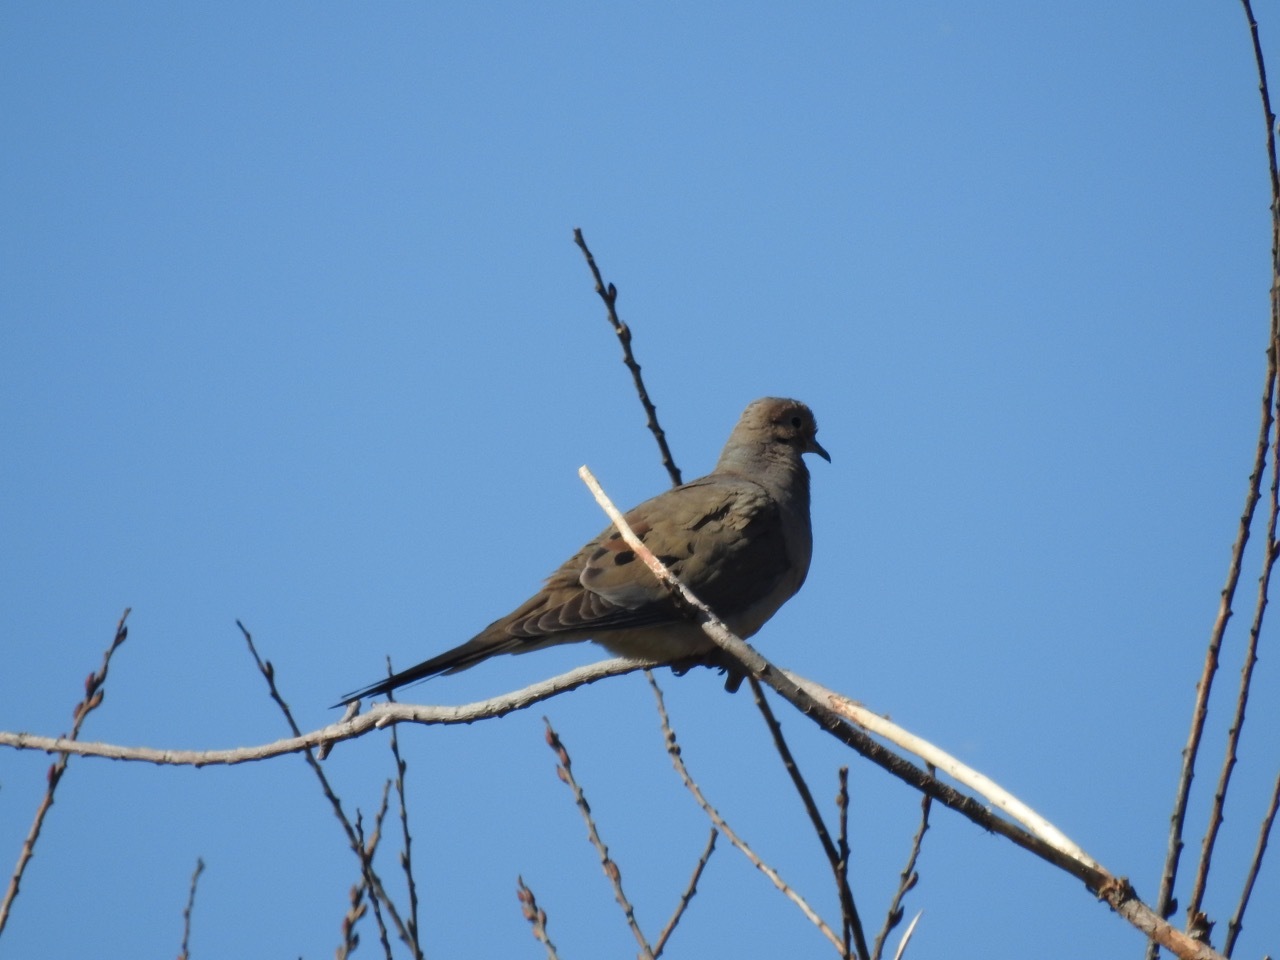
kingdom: Animalia
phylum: Chordata
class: Aves
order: Columbiformes
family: Columbidae
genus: Zenaida
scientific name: Zenaida macroura
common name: Mourning dove
